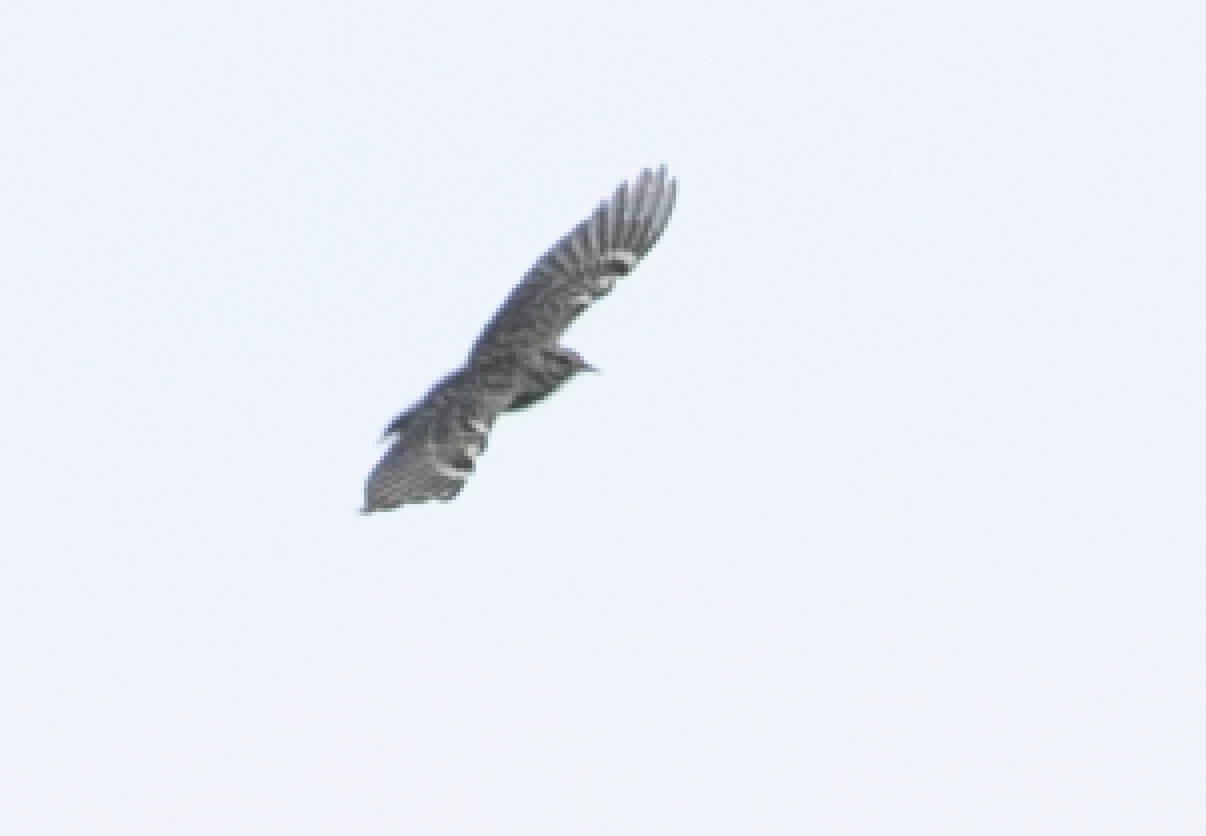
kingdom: Animalia
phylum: Chordata
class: Aves
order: Passeriformes
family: Alaudidae
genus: Lullula
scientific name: Lullula arborea
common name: Woodlark
